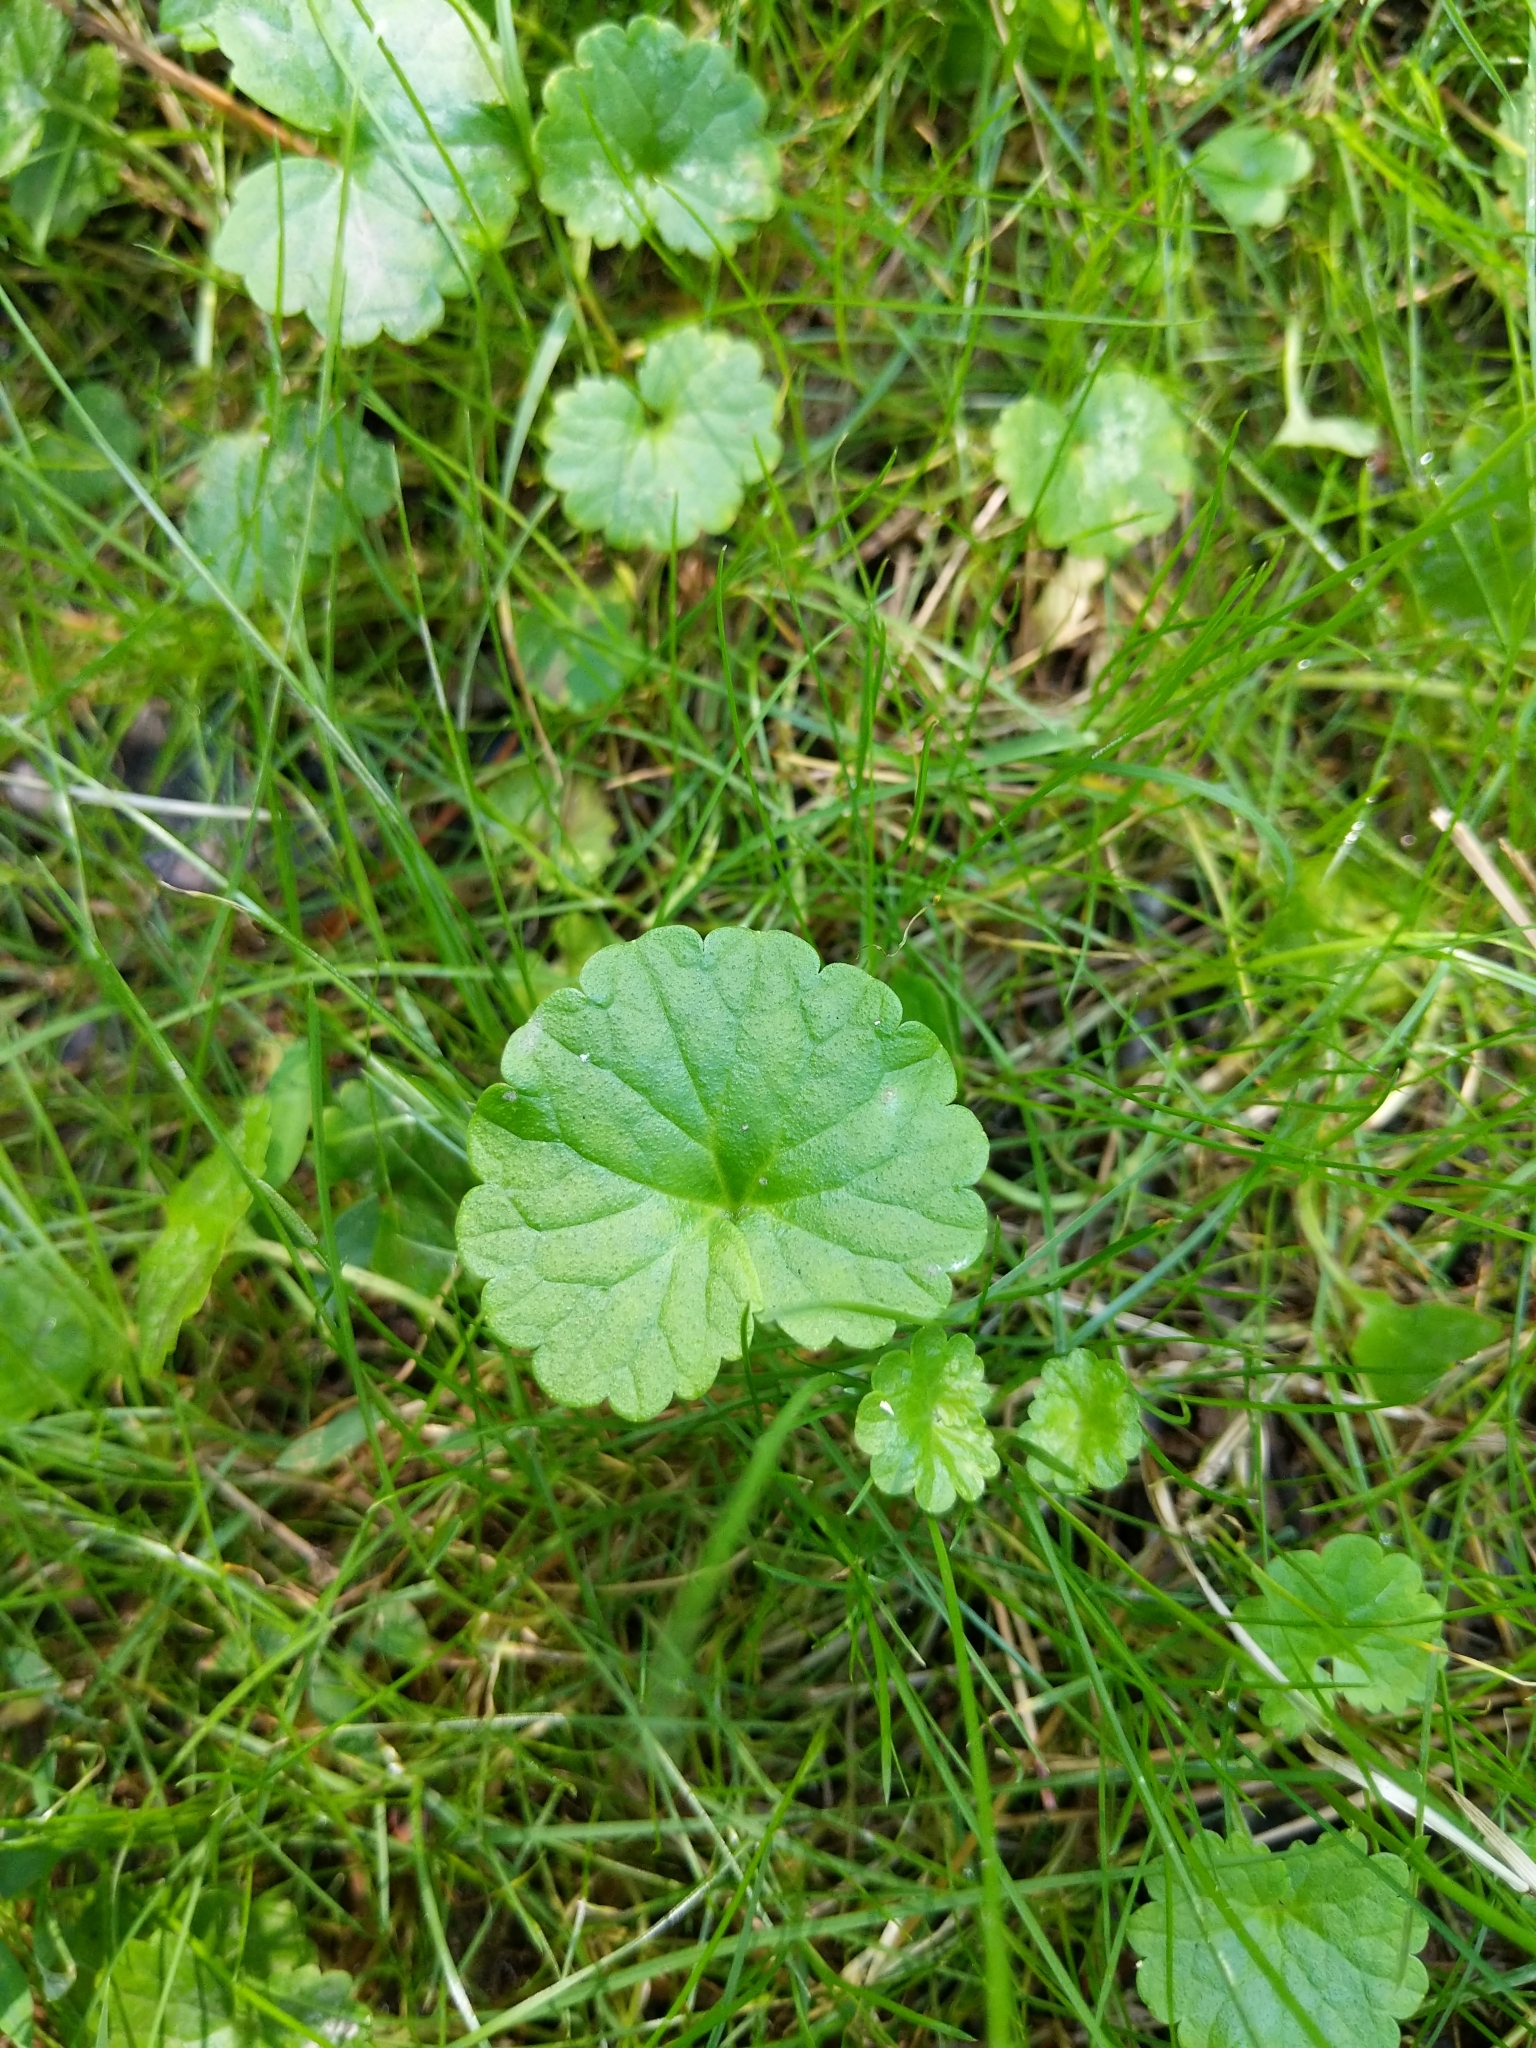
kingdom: Plantae
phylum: Tracheophyta
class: Magnoliopsida
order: Lamiales
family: Lamiaceae
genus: Glechoma
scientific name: Glechoma hederacea
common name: Ground ivy
